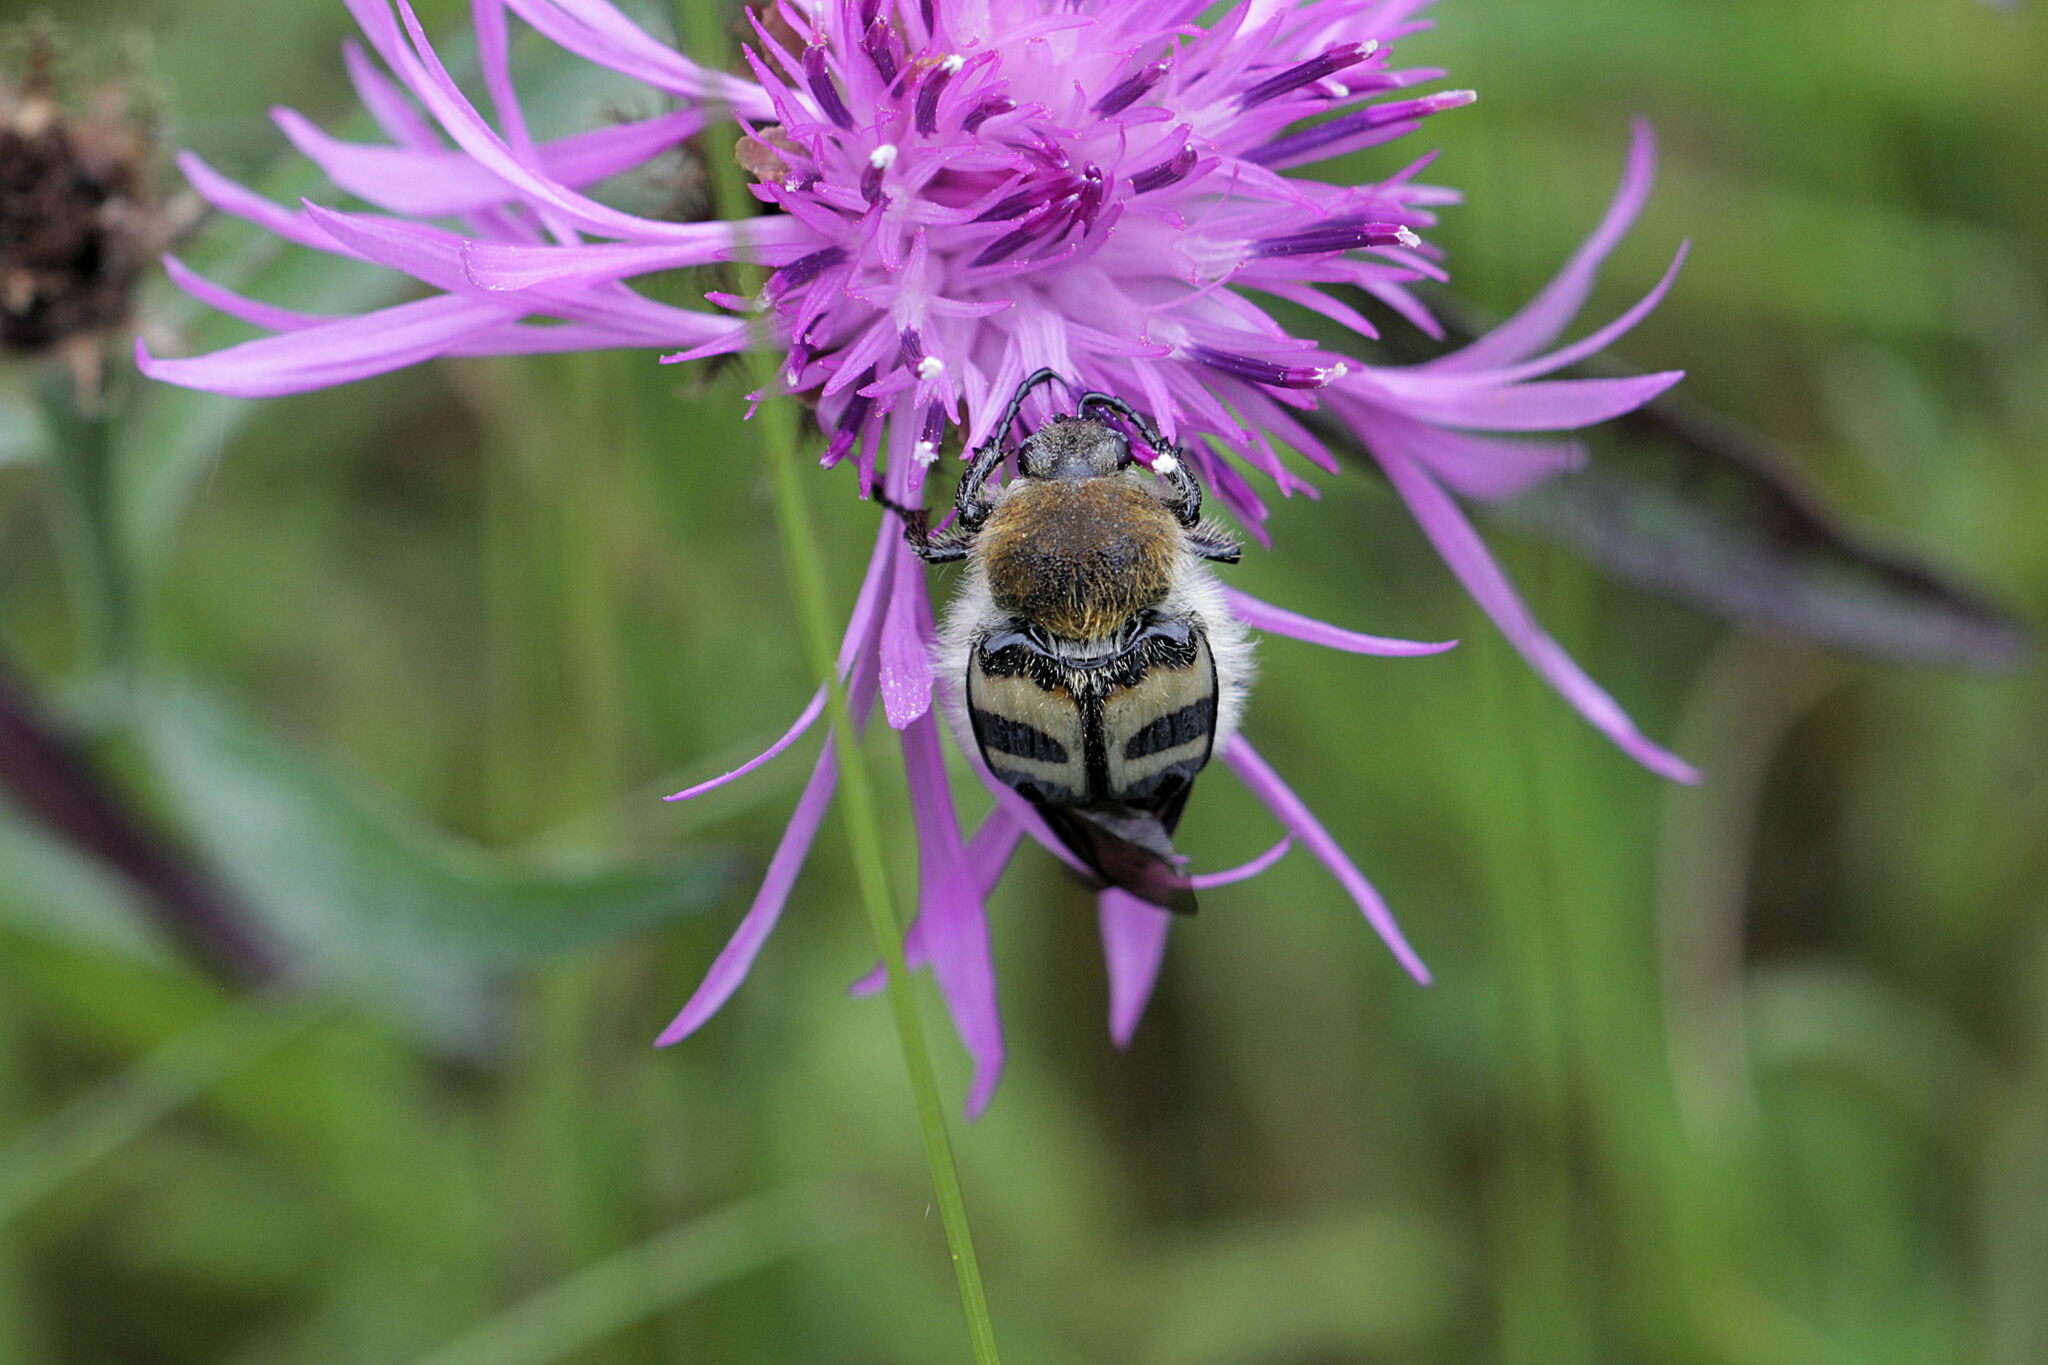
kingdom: Animalia
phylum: Arthropoda
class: Insecta
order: Coleoptera
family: Scarabaeidae
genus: Trichius
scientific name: Trichius fasciatus
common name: Bee beetle
